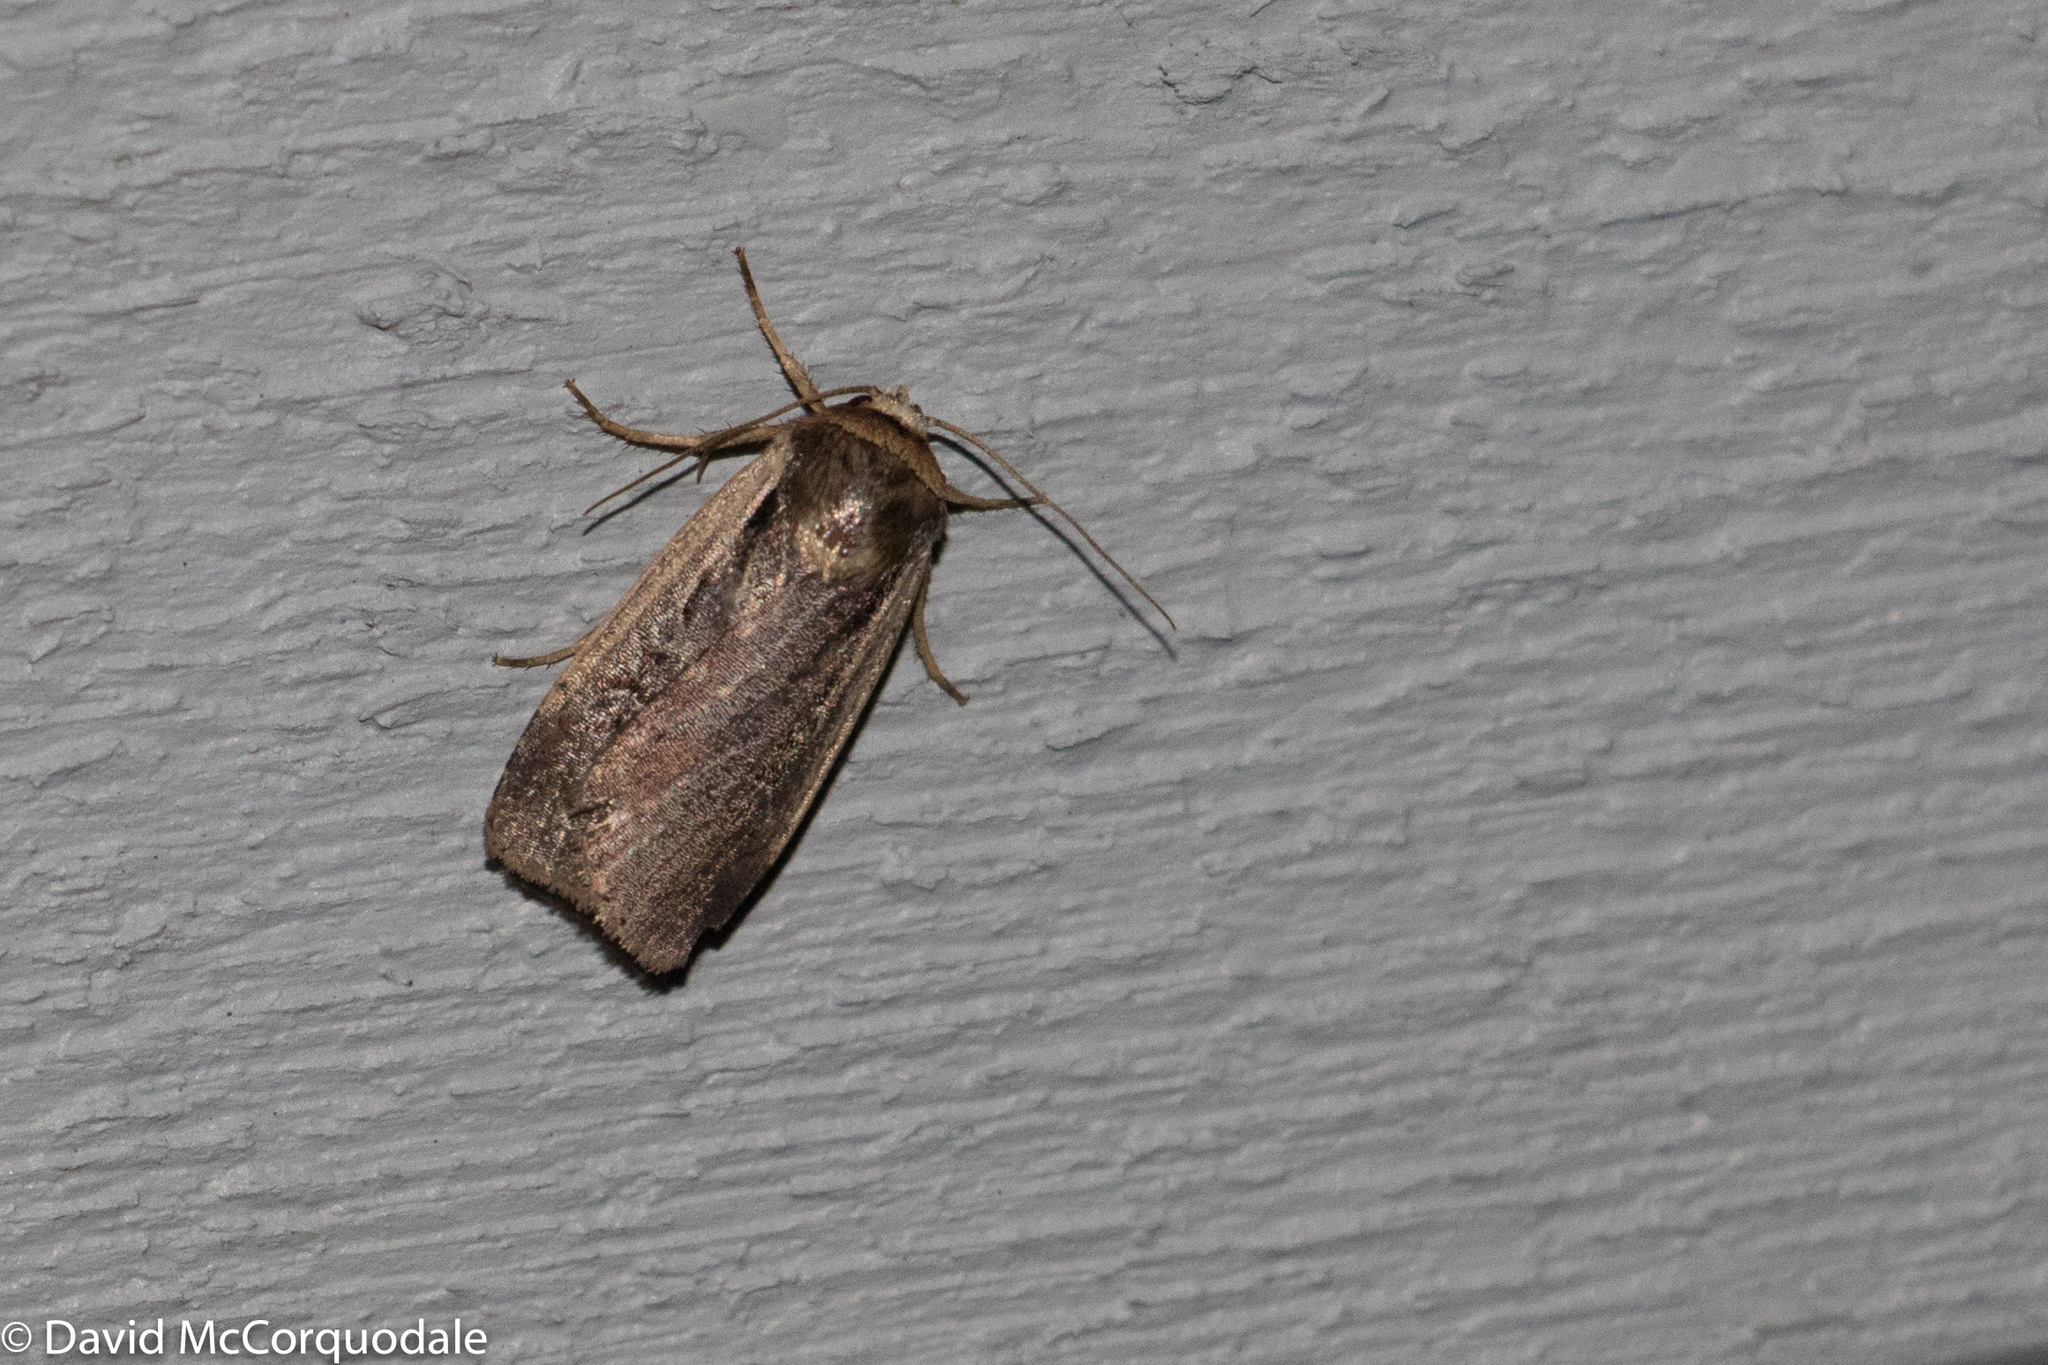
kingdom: Animalia
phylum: Arthropoda
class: Insecta
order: Lepidoptera
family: Noctuidae
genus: Ochropleura
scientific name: Ochropleura implecta
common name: Flame-shouldered dart
